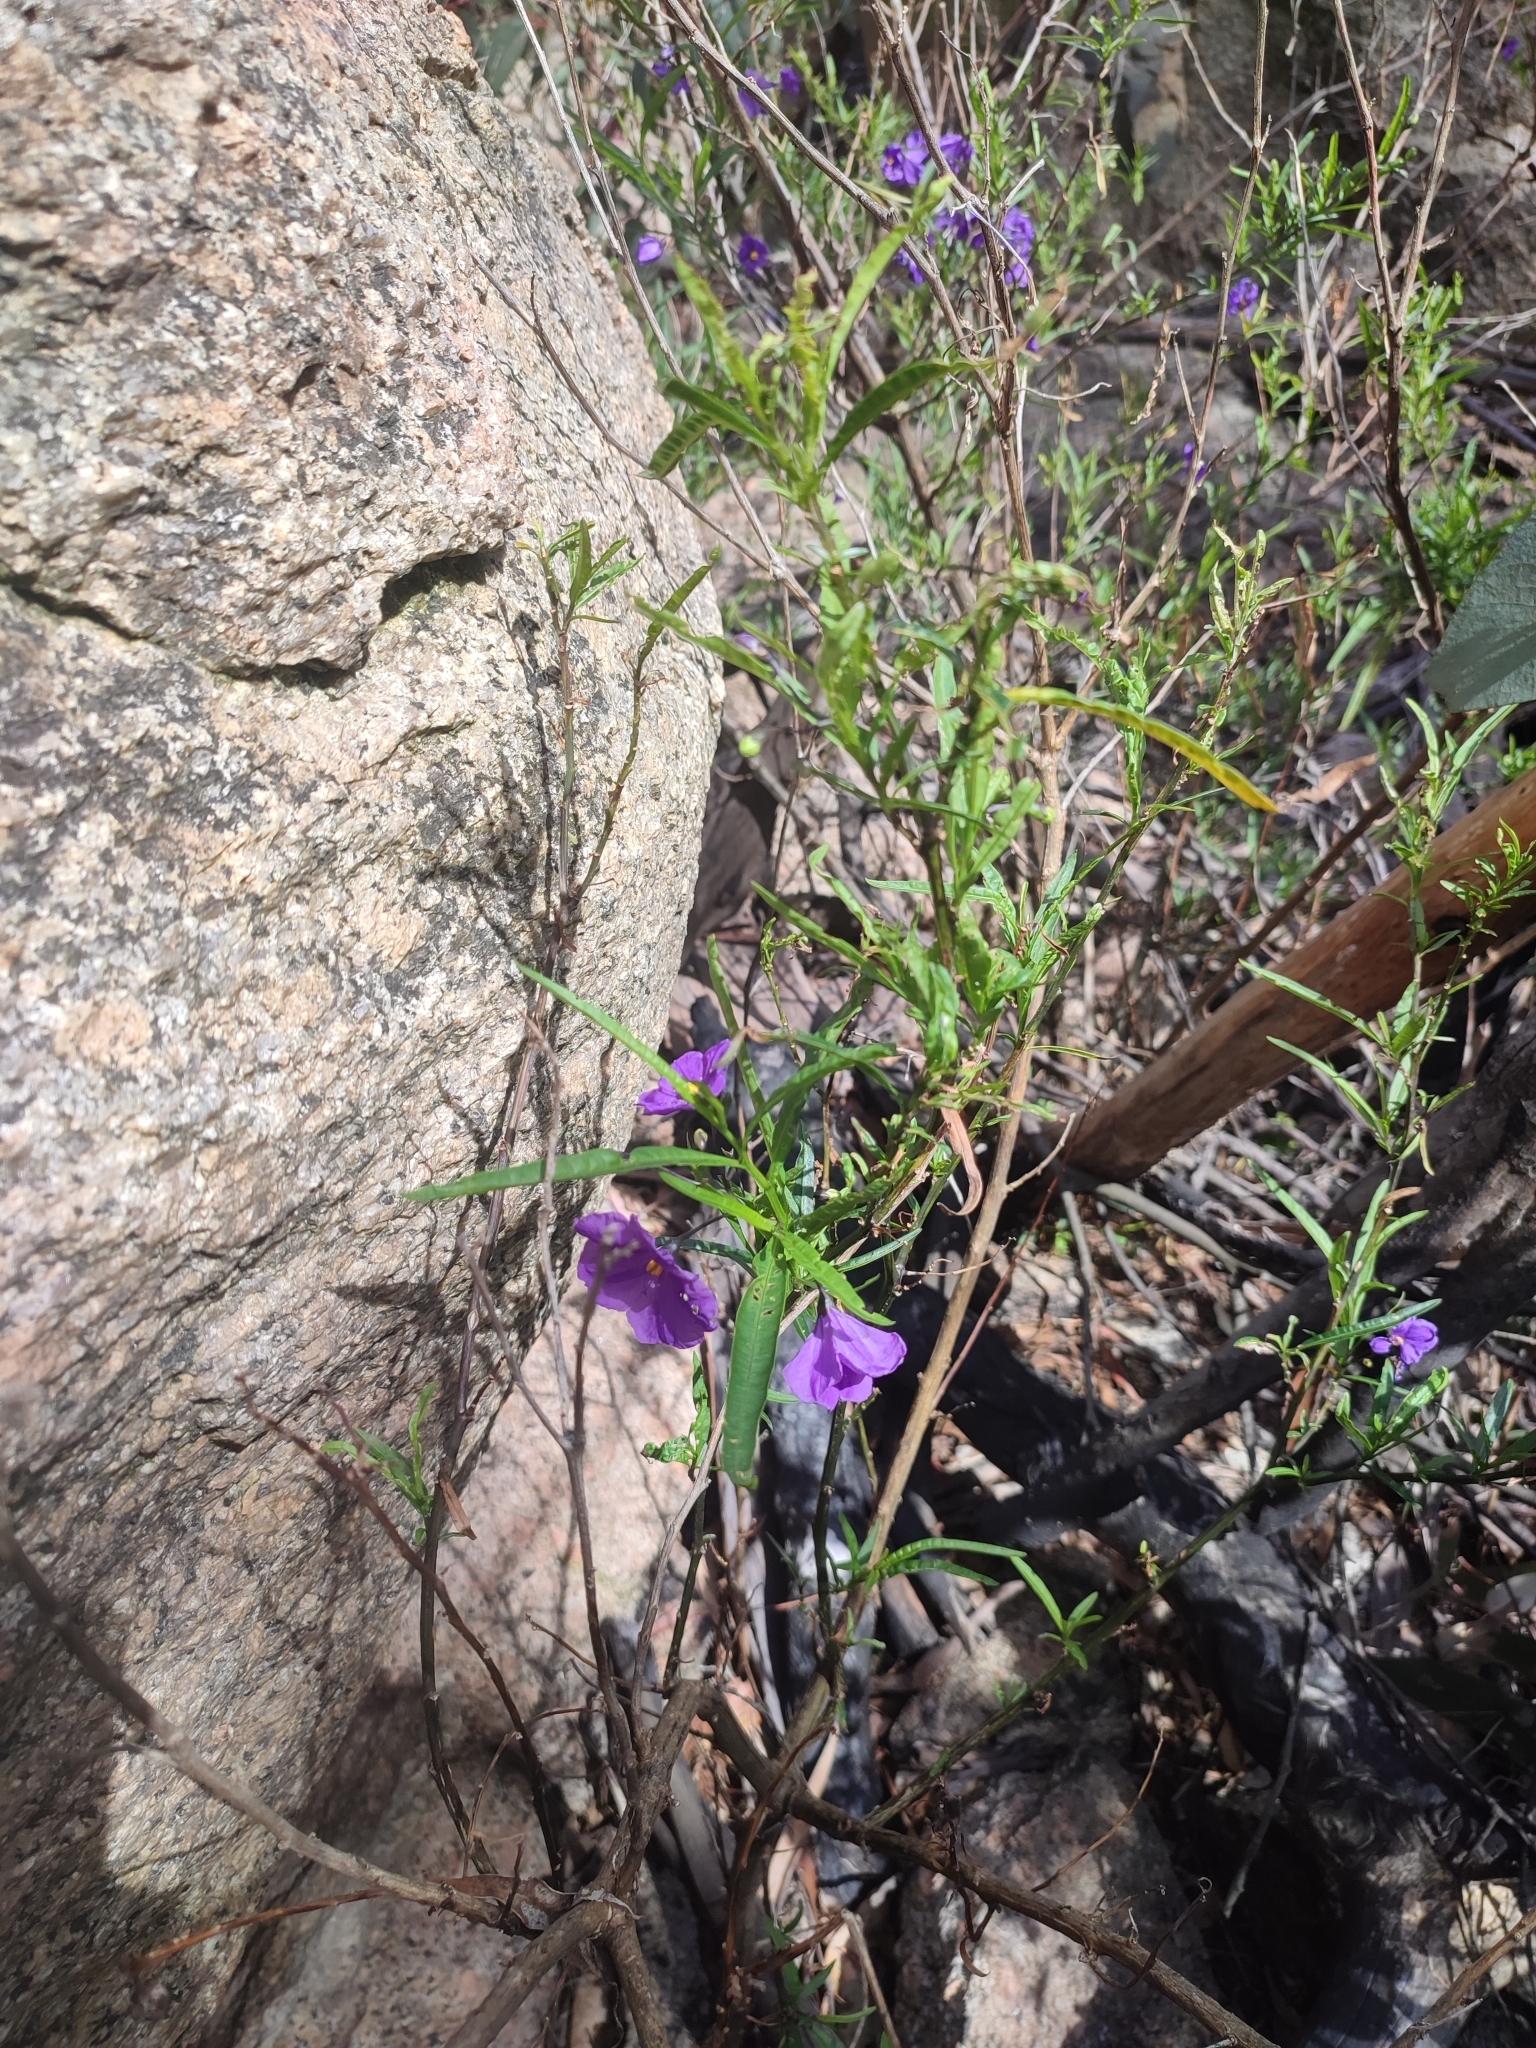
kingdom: Plantae
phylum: Tracheophyta
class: Magnoliopsida
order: Solanales
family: Solanaceae
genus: Solanum
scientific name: Solanum linearifolium
